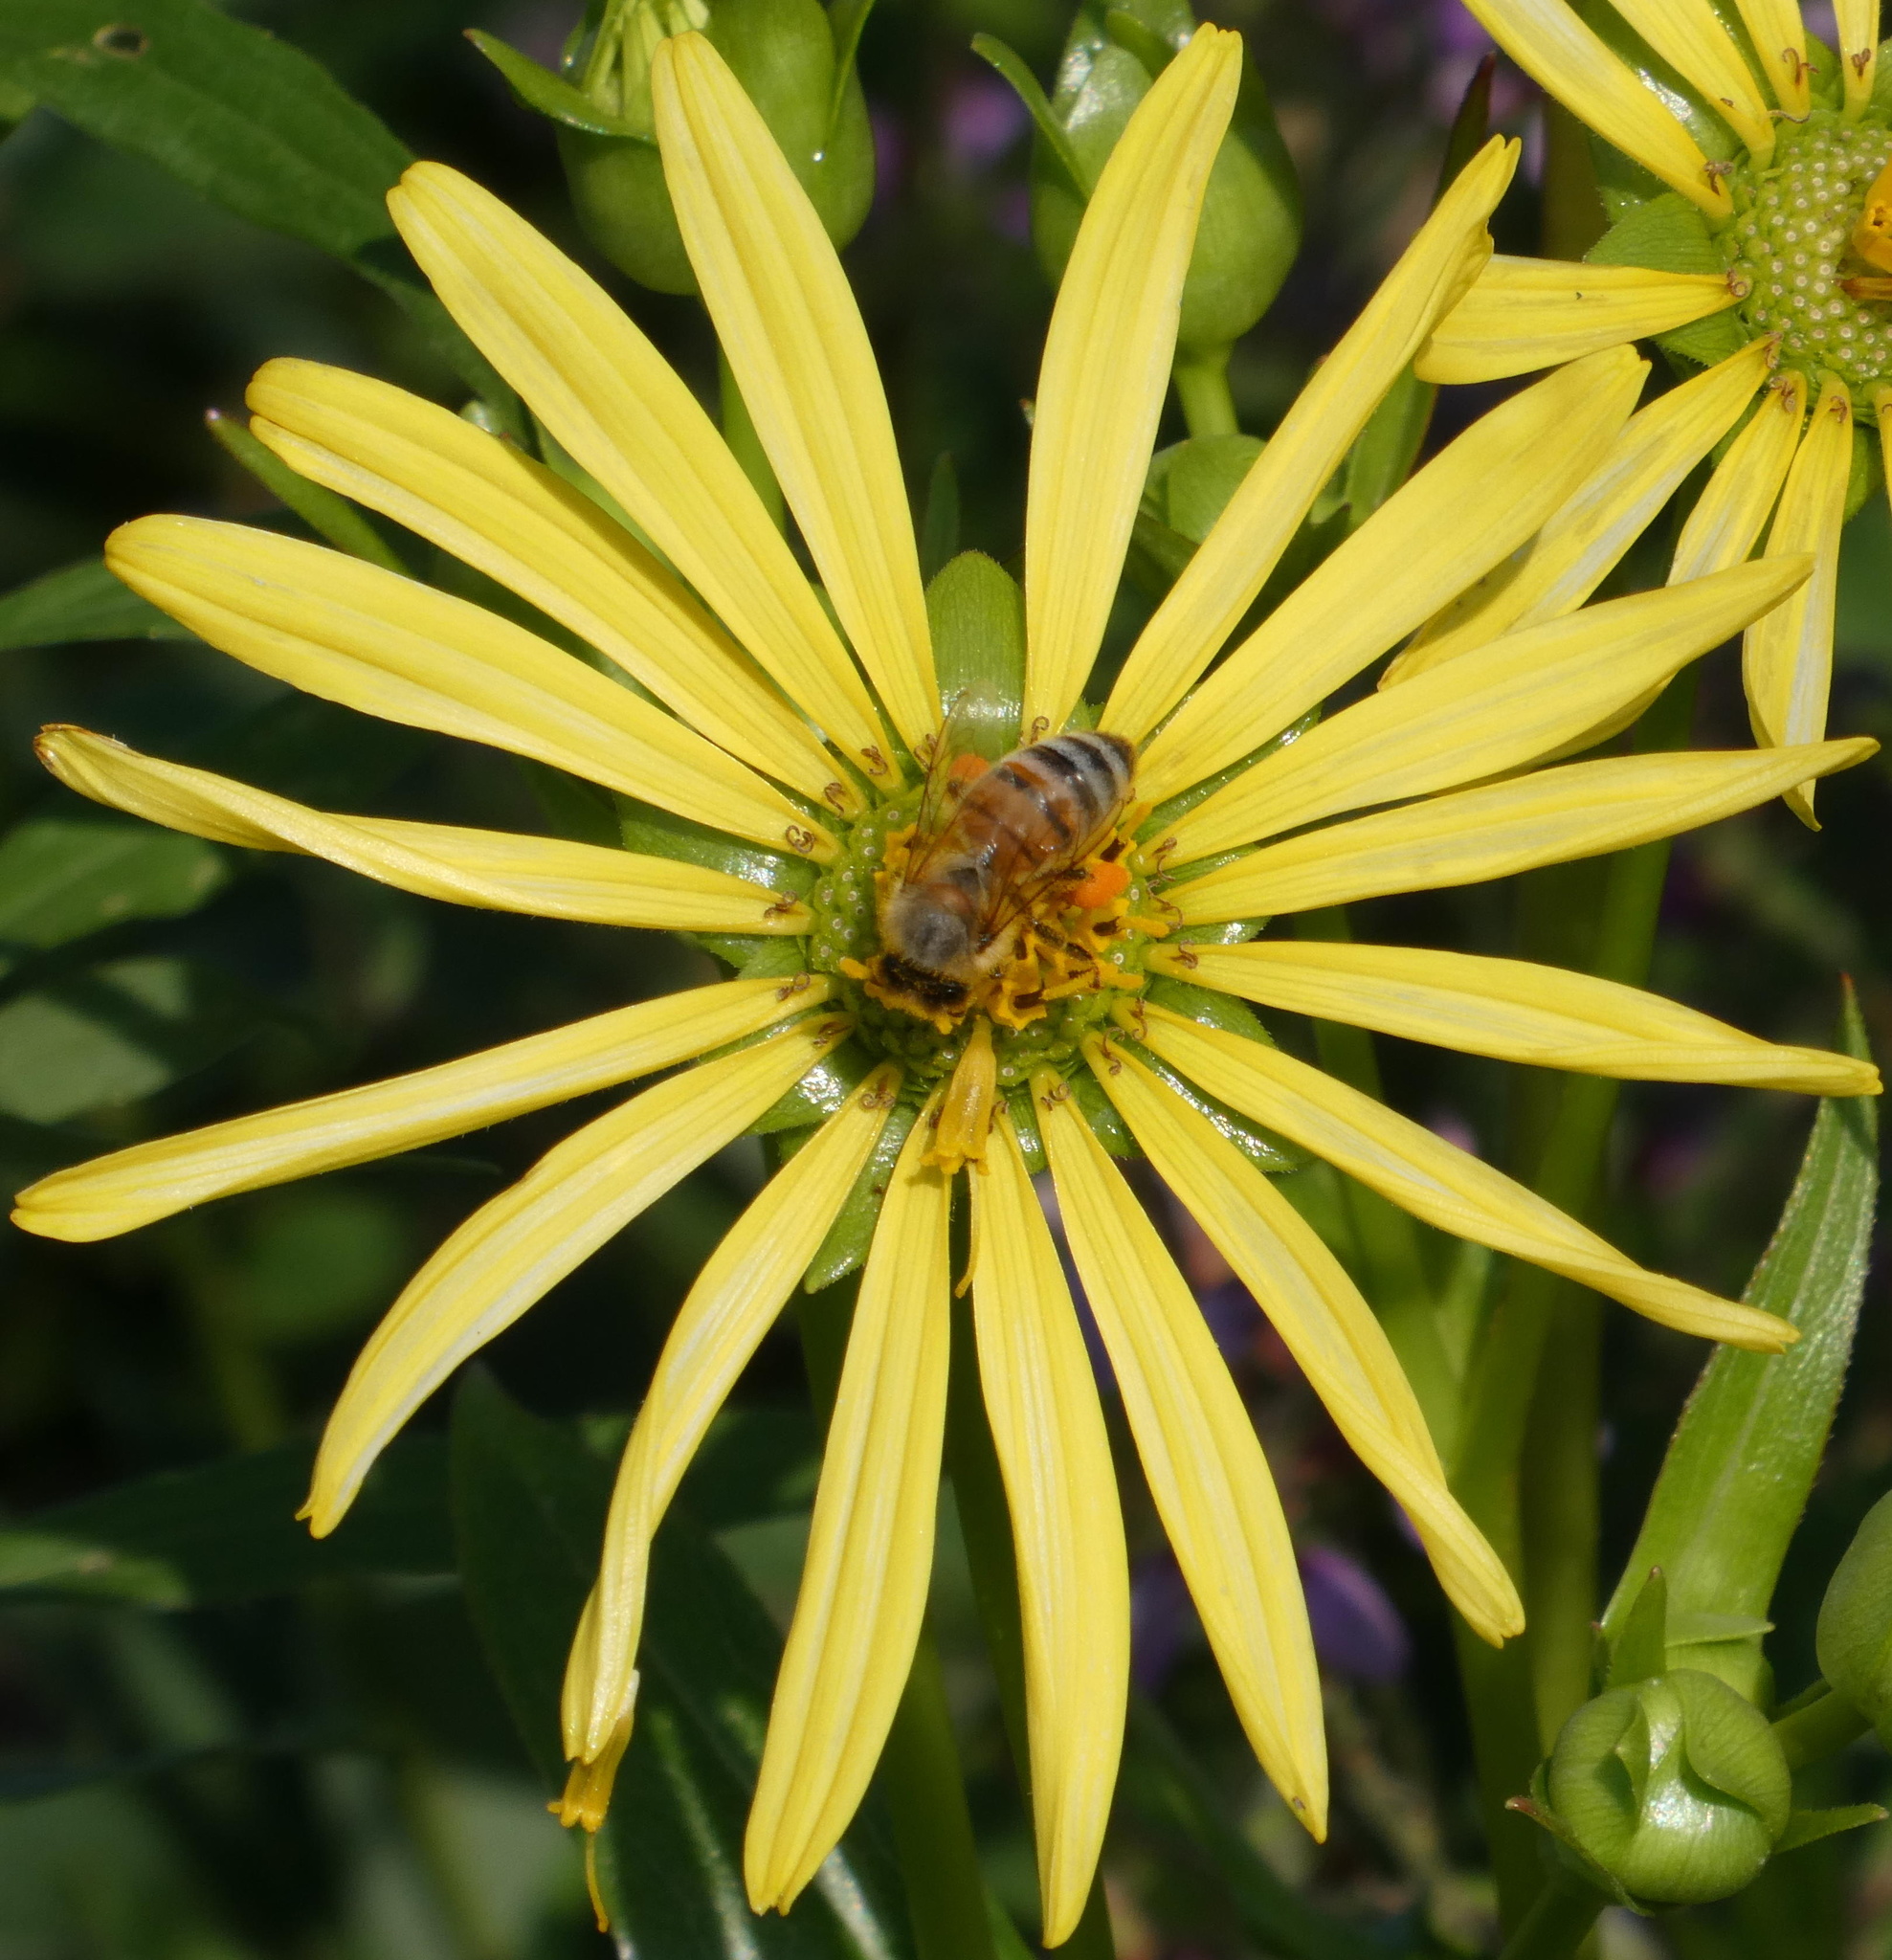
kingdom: Animalia
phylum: Arthropoda
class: Insecta
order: Hymenoptera
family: Apidae
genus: Apis
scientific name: Apis mellifera
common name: Honey bee
